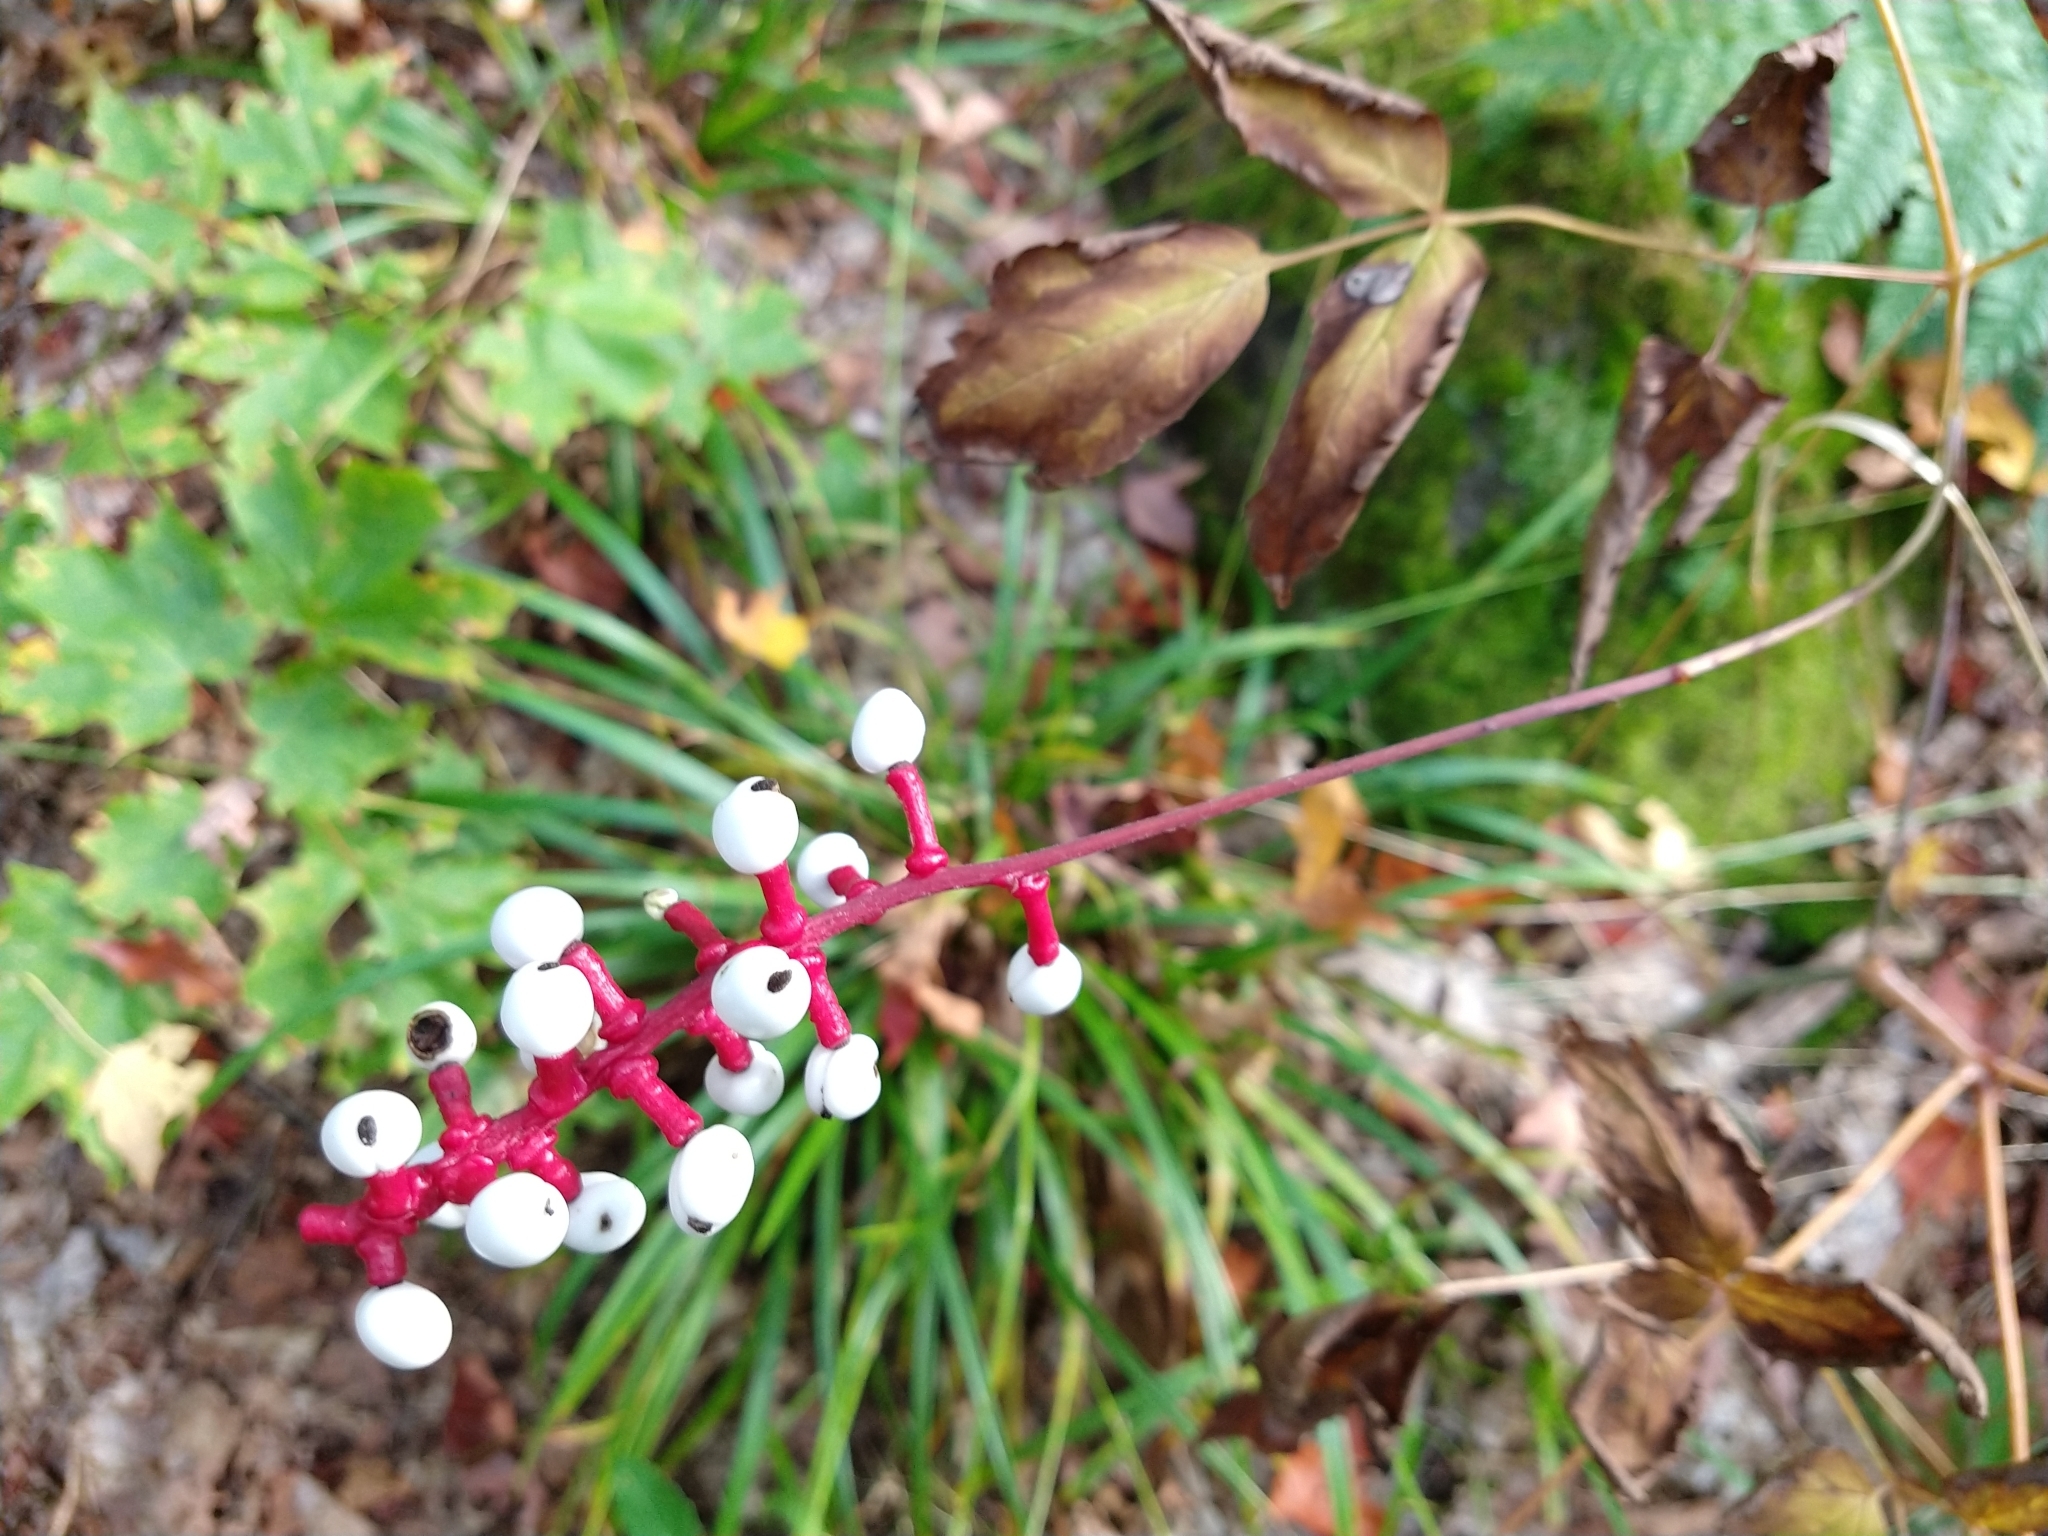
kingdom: Plantae
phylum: Tracheophyta
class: Magnoliopsida
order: Ranunculales
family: Ranunculaceae
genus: Actaea
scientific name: Actaea pachypoda
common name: Doll's-eyes
